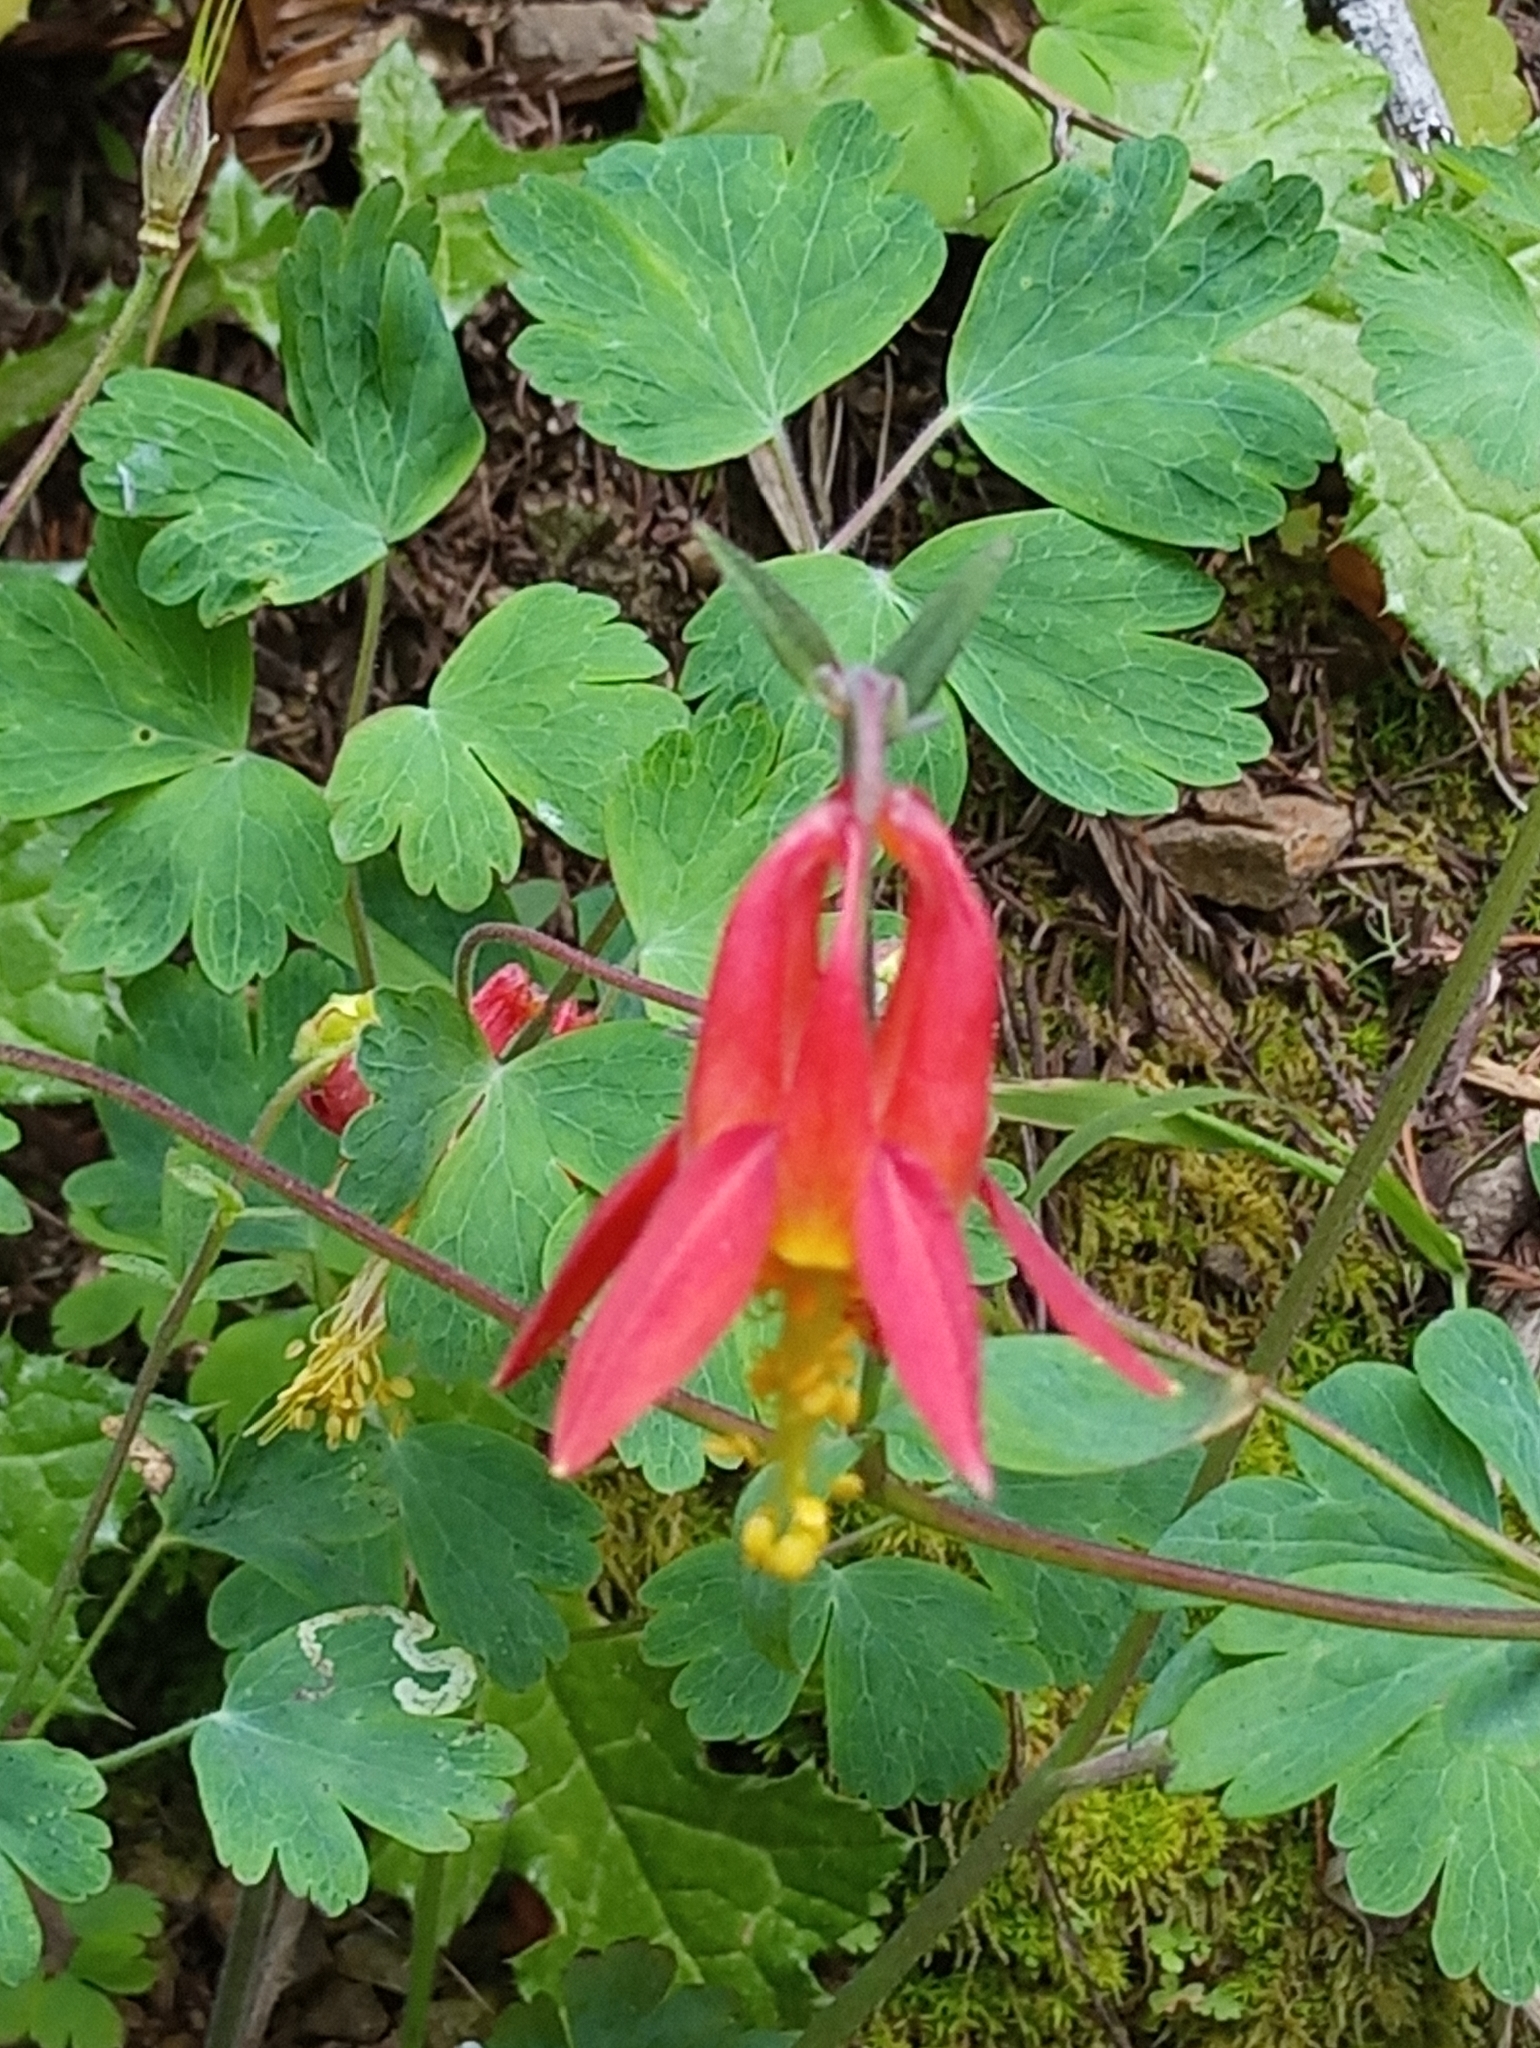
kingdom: Plantae
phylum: Tracheophyta
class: Magnoliopsida
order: Ranunculales
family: Ranunculaceae
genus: Aquilegia
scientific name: Aquilegia formosa
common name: Sitka columbine
